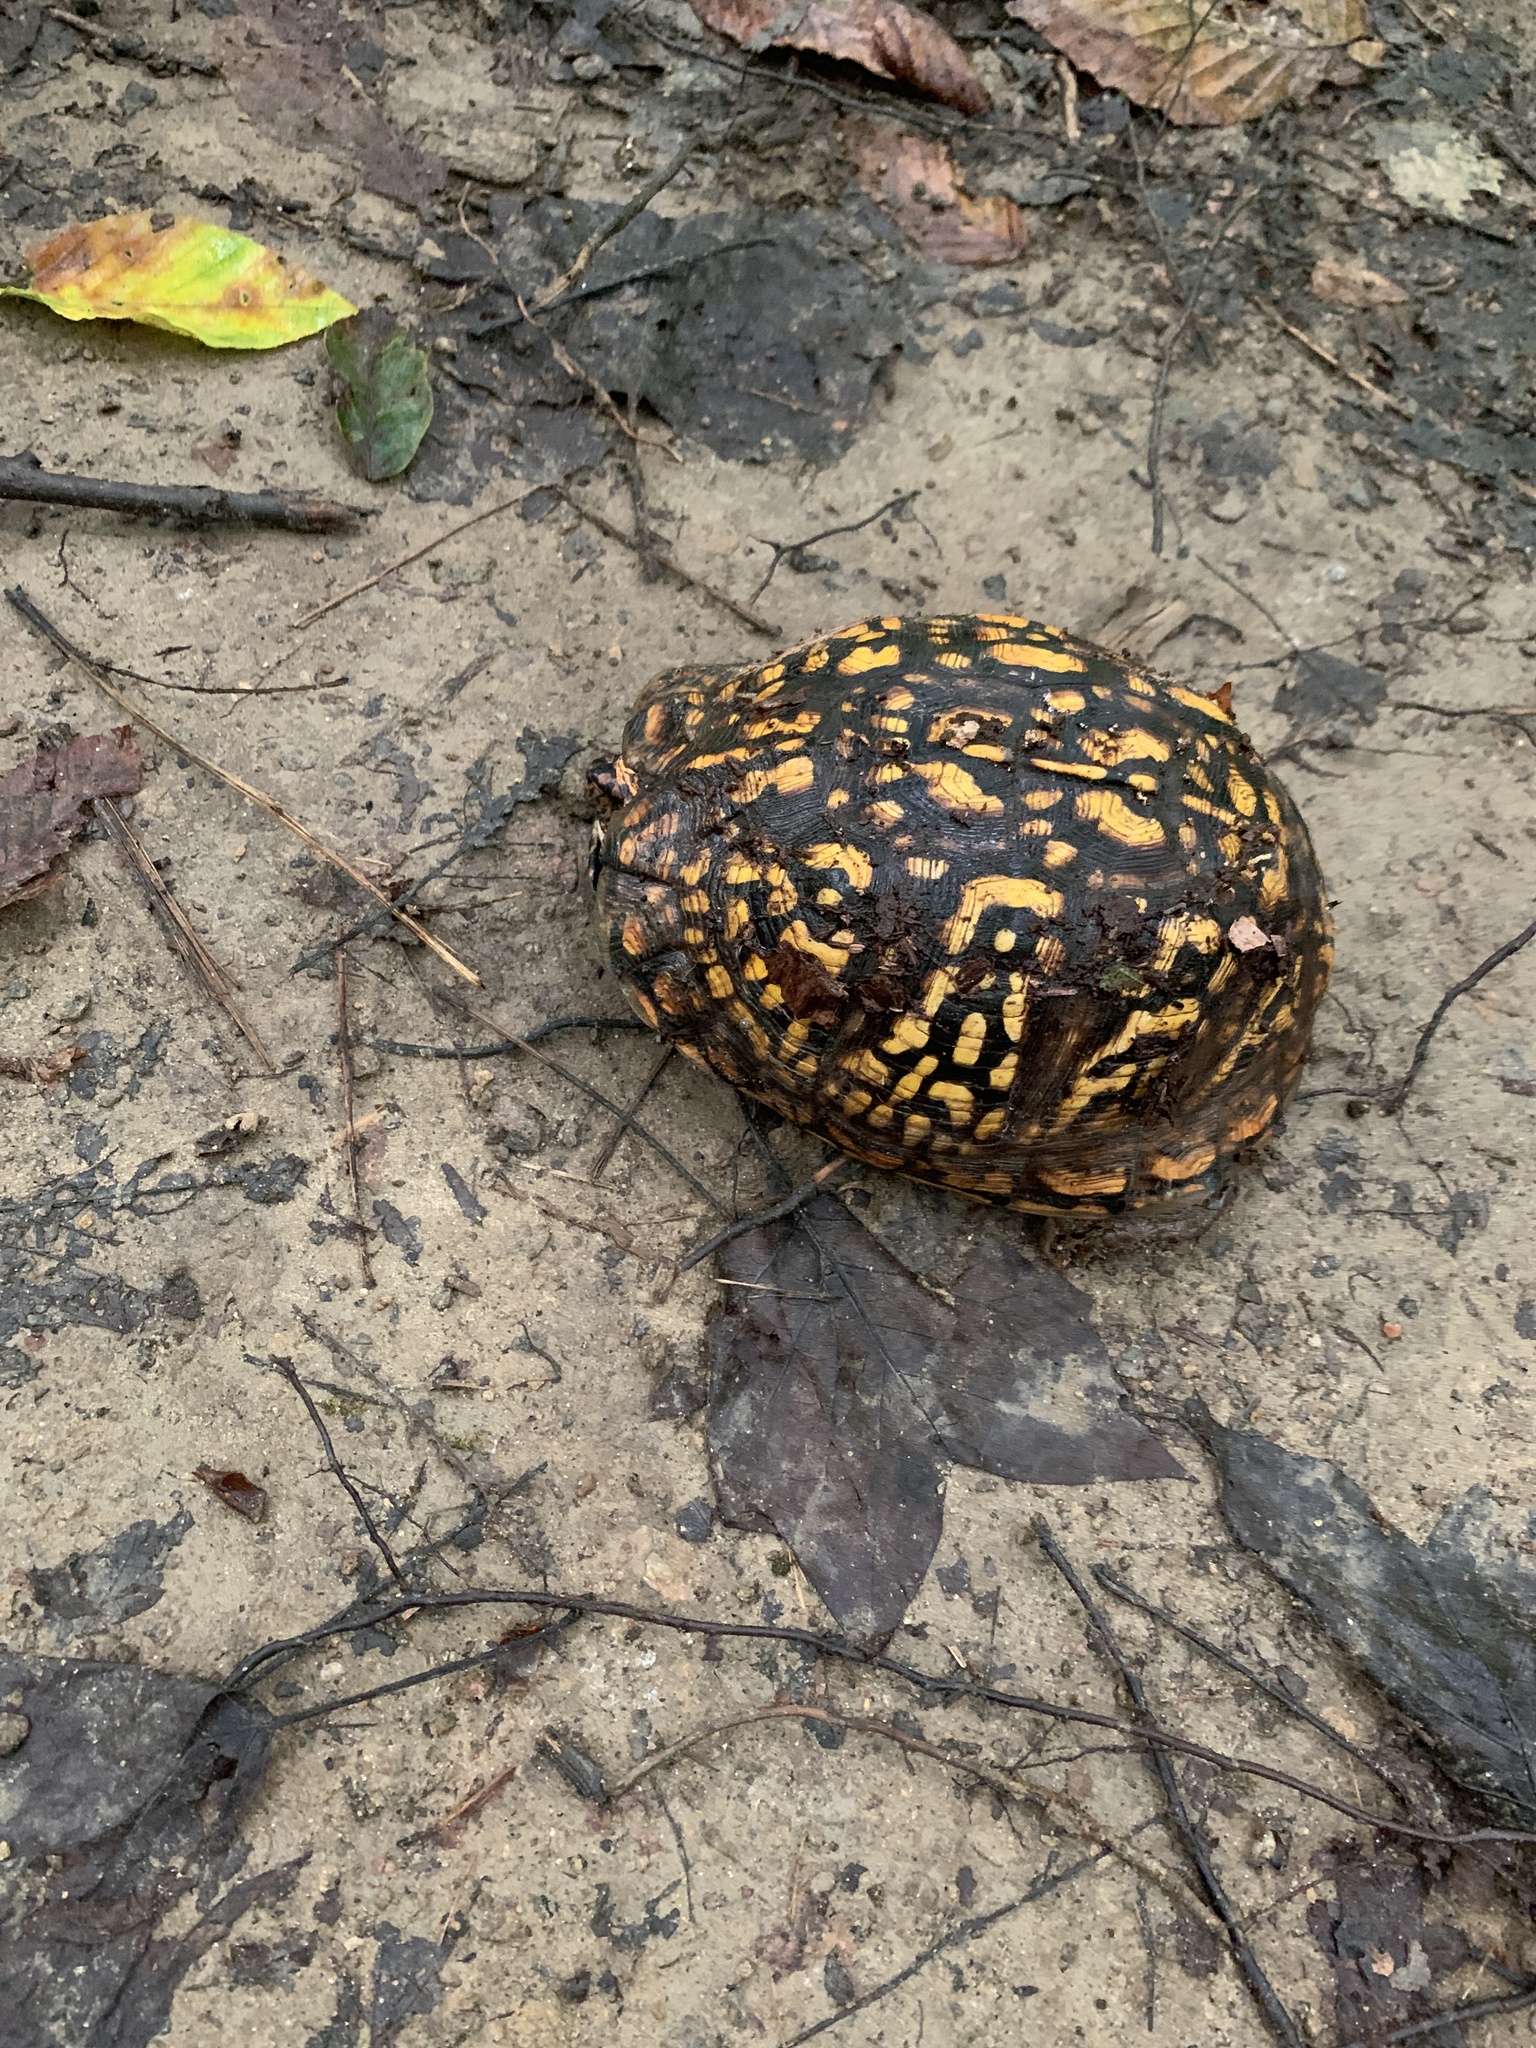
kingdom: Animalia
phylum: Chordata
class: Testudines
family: Emydidae
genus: Terrapene
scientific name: Terrapene carolina
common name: Common box turtle
